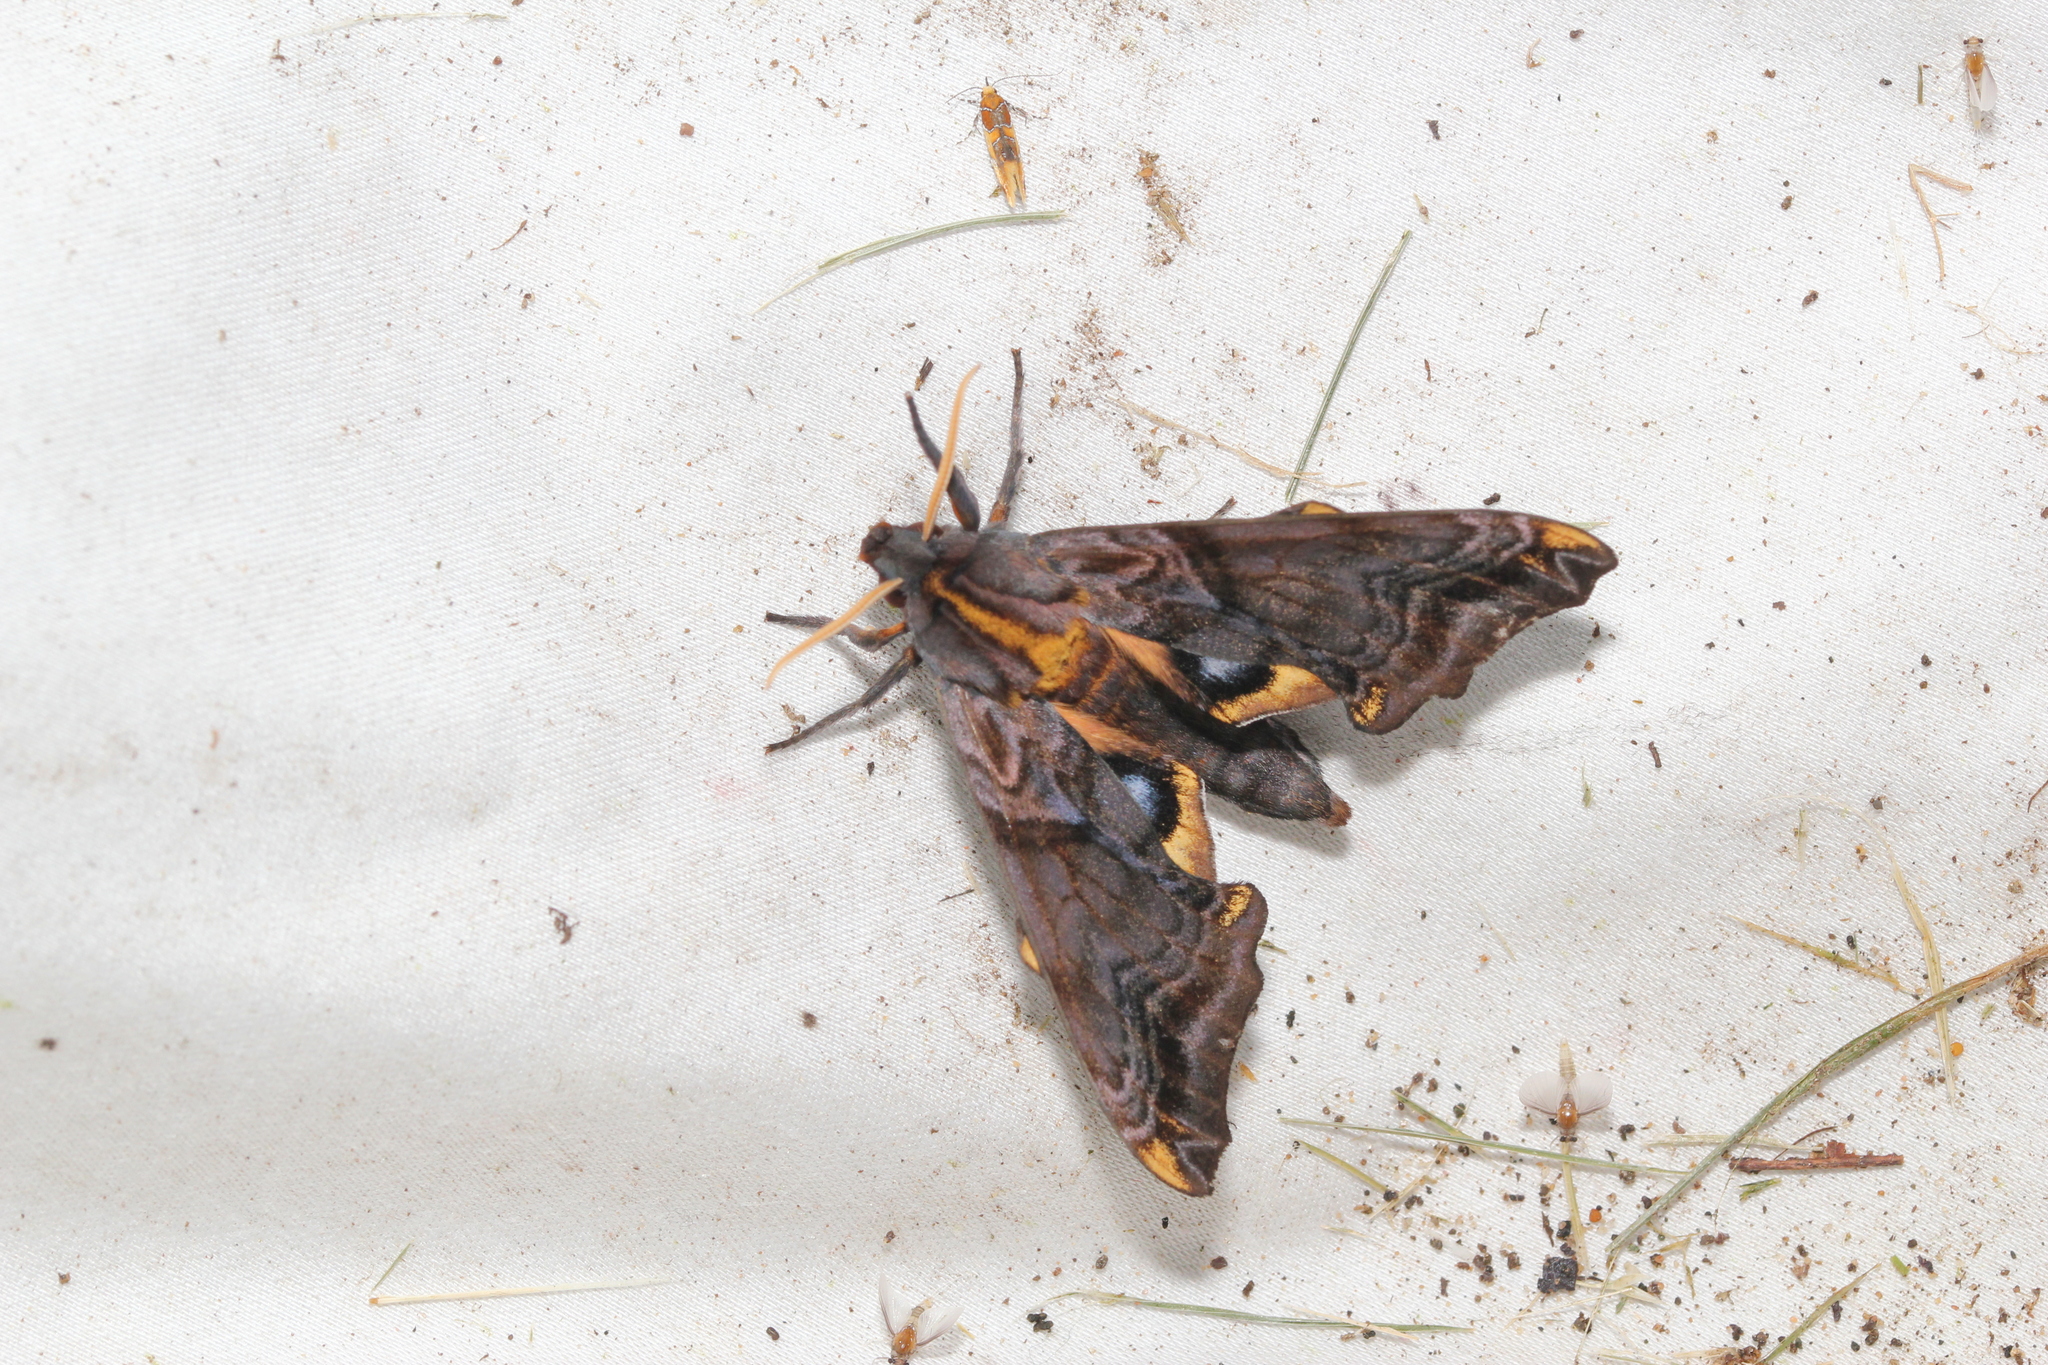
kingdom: Animalia
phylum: Arthropoda
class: Insecta
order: Lepidoptera
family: Sphingidae
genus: Paonias
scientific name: Paonias myops
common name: Small-eyed sphinx
